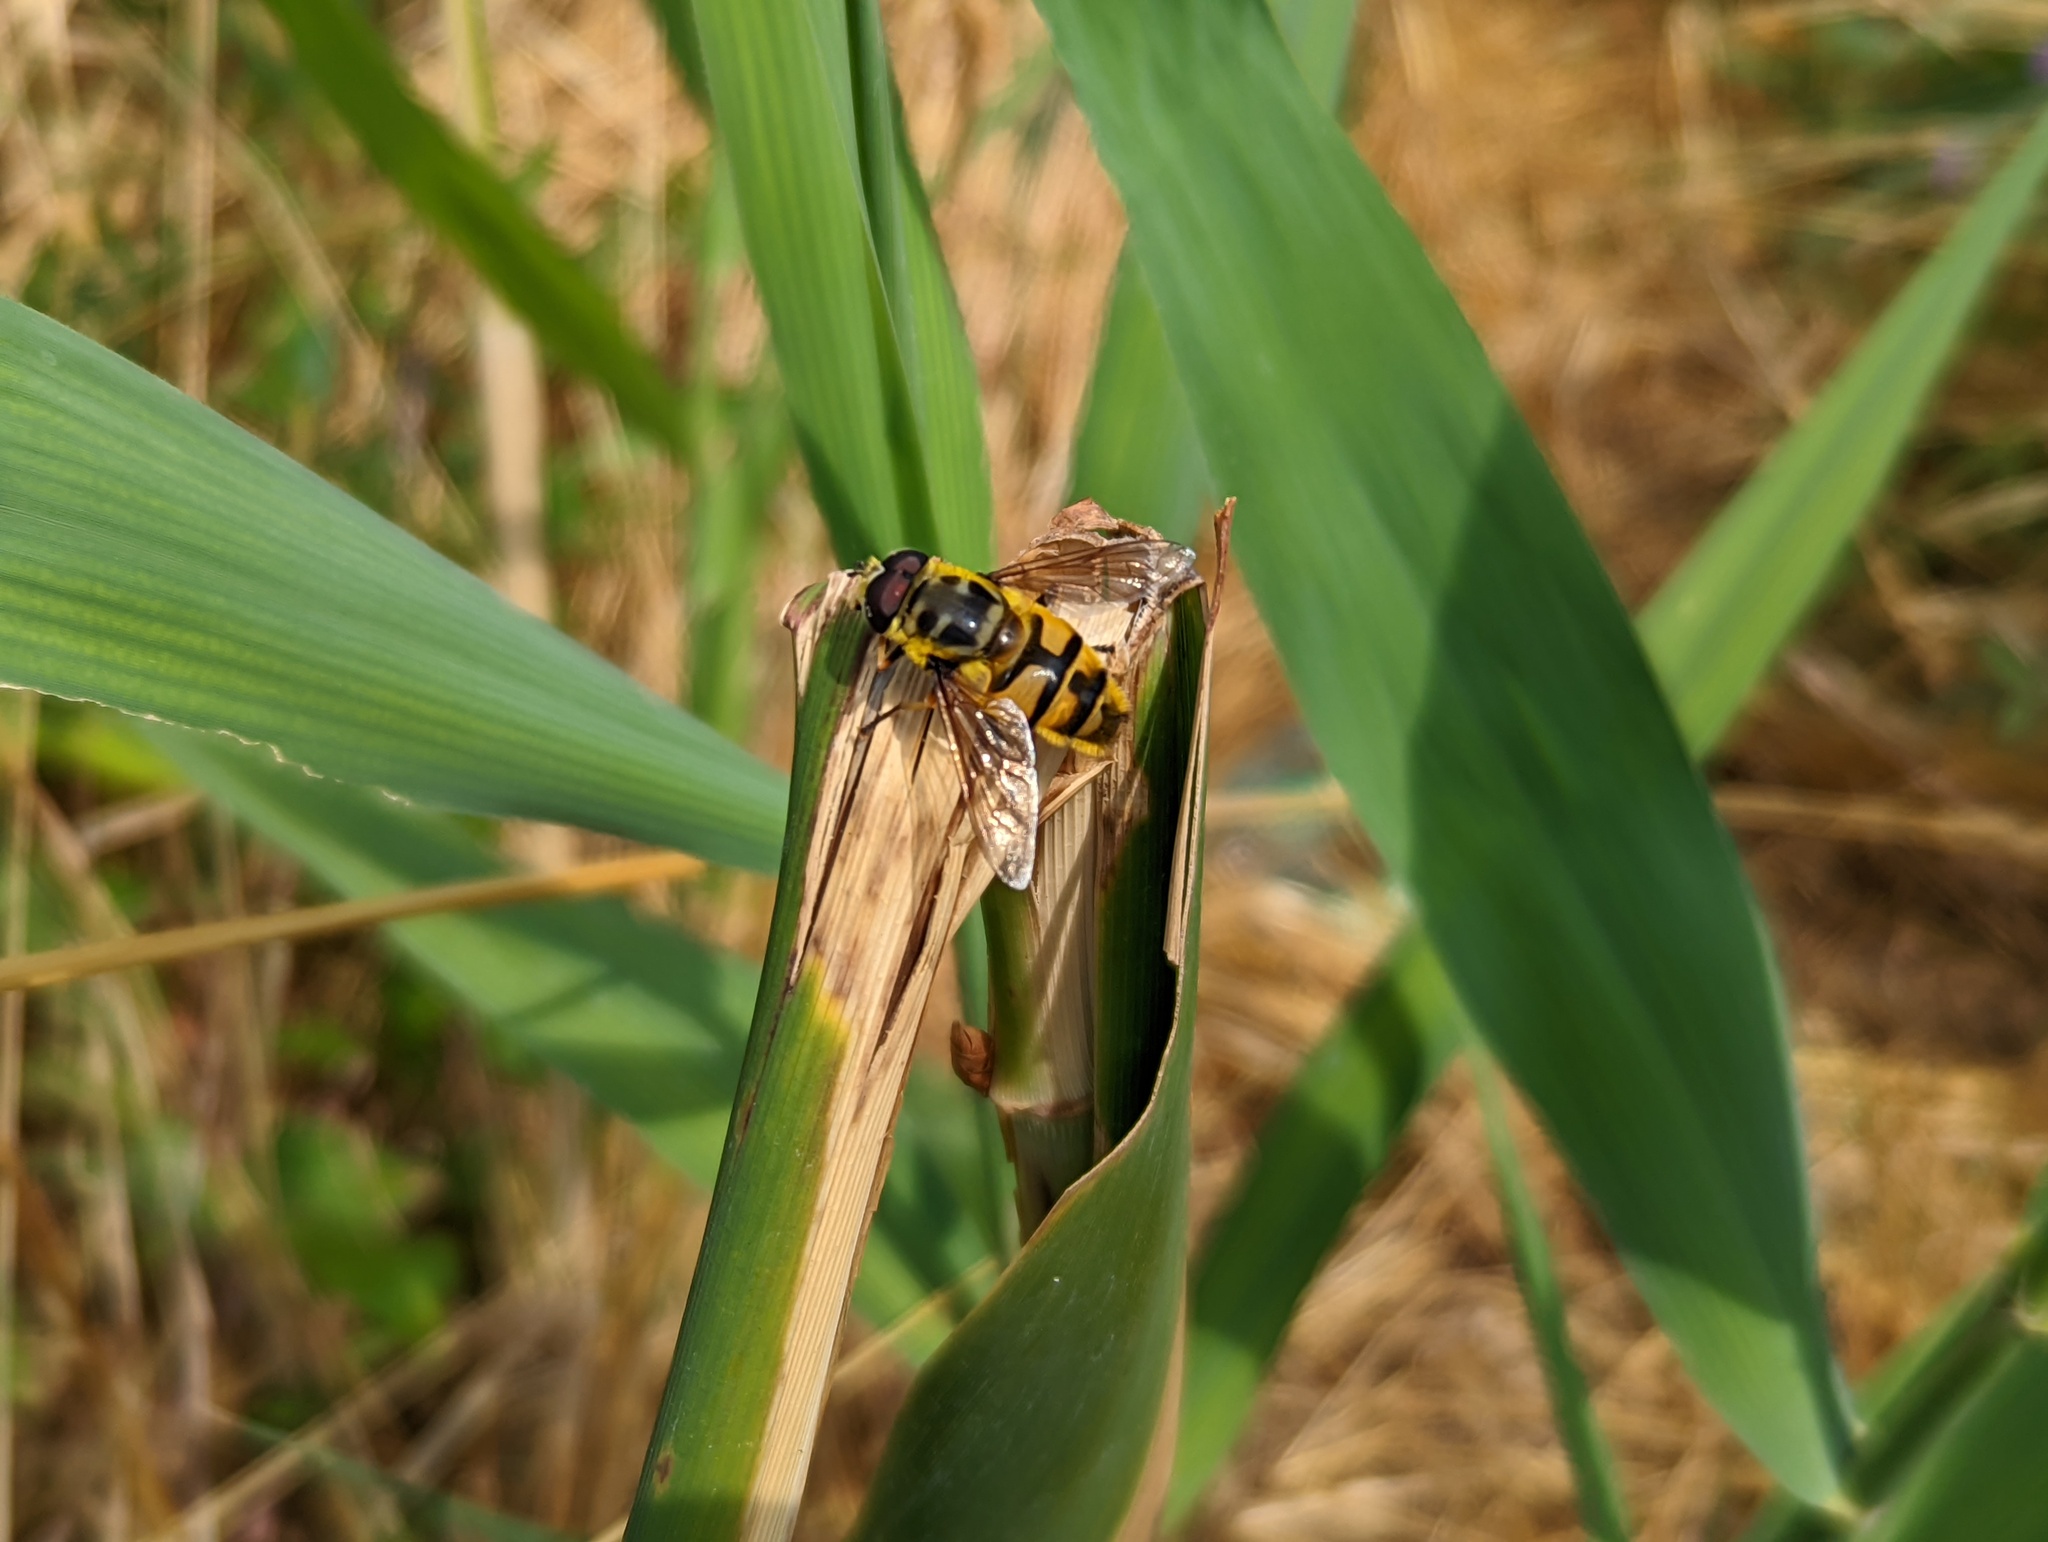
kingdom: Animalia
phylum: Arthropoda
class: Insecta
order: Diptera
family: Syrphidae
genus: Myathropa
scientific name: Myathropa florea
